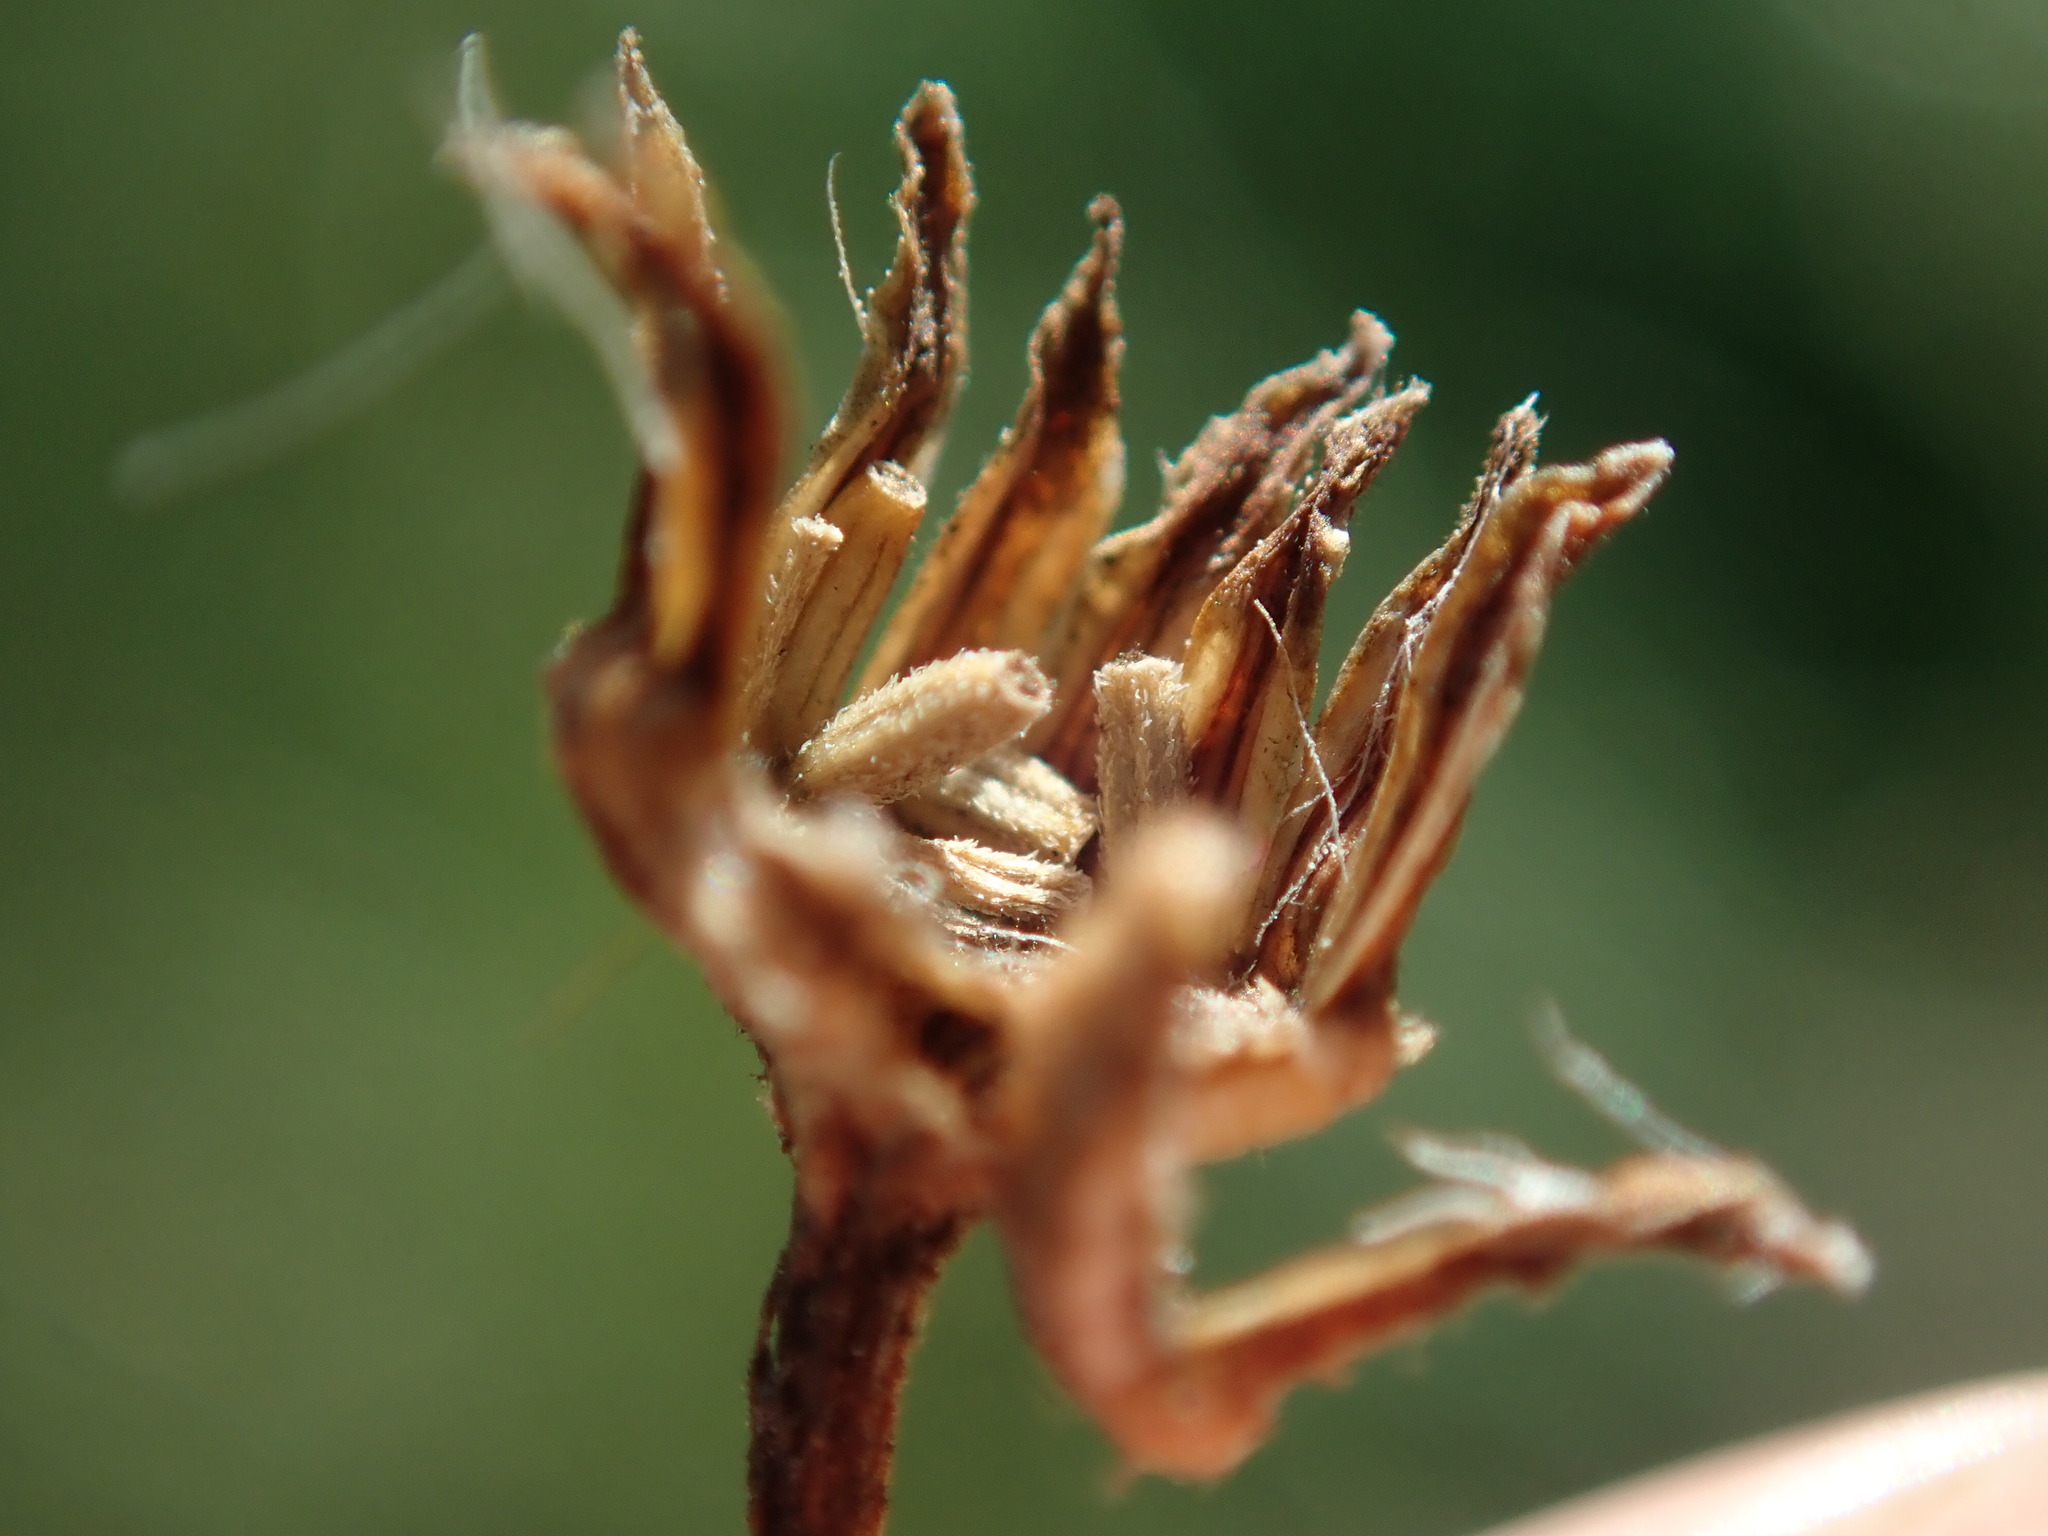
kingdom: Plantae
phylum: Tracheophyta
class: Magnoliopsida
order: Asterales
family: Asteraceae
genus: Jacobaea
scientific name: Jacobaea vulgaris
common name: Stinking willie
